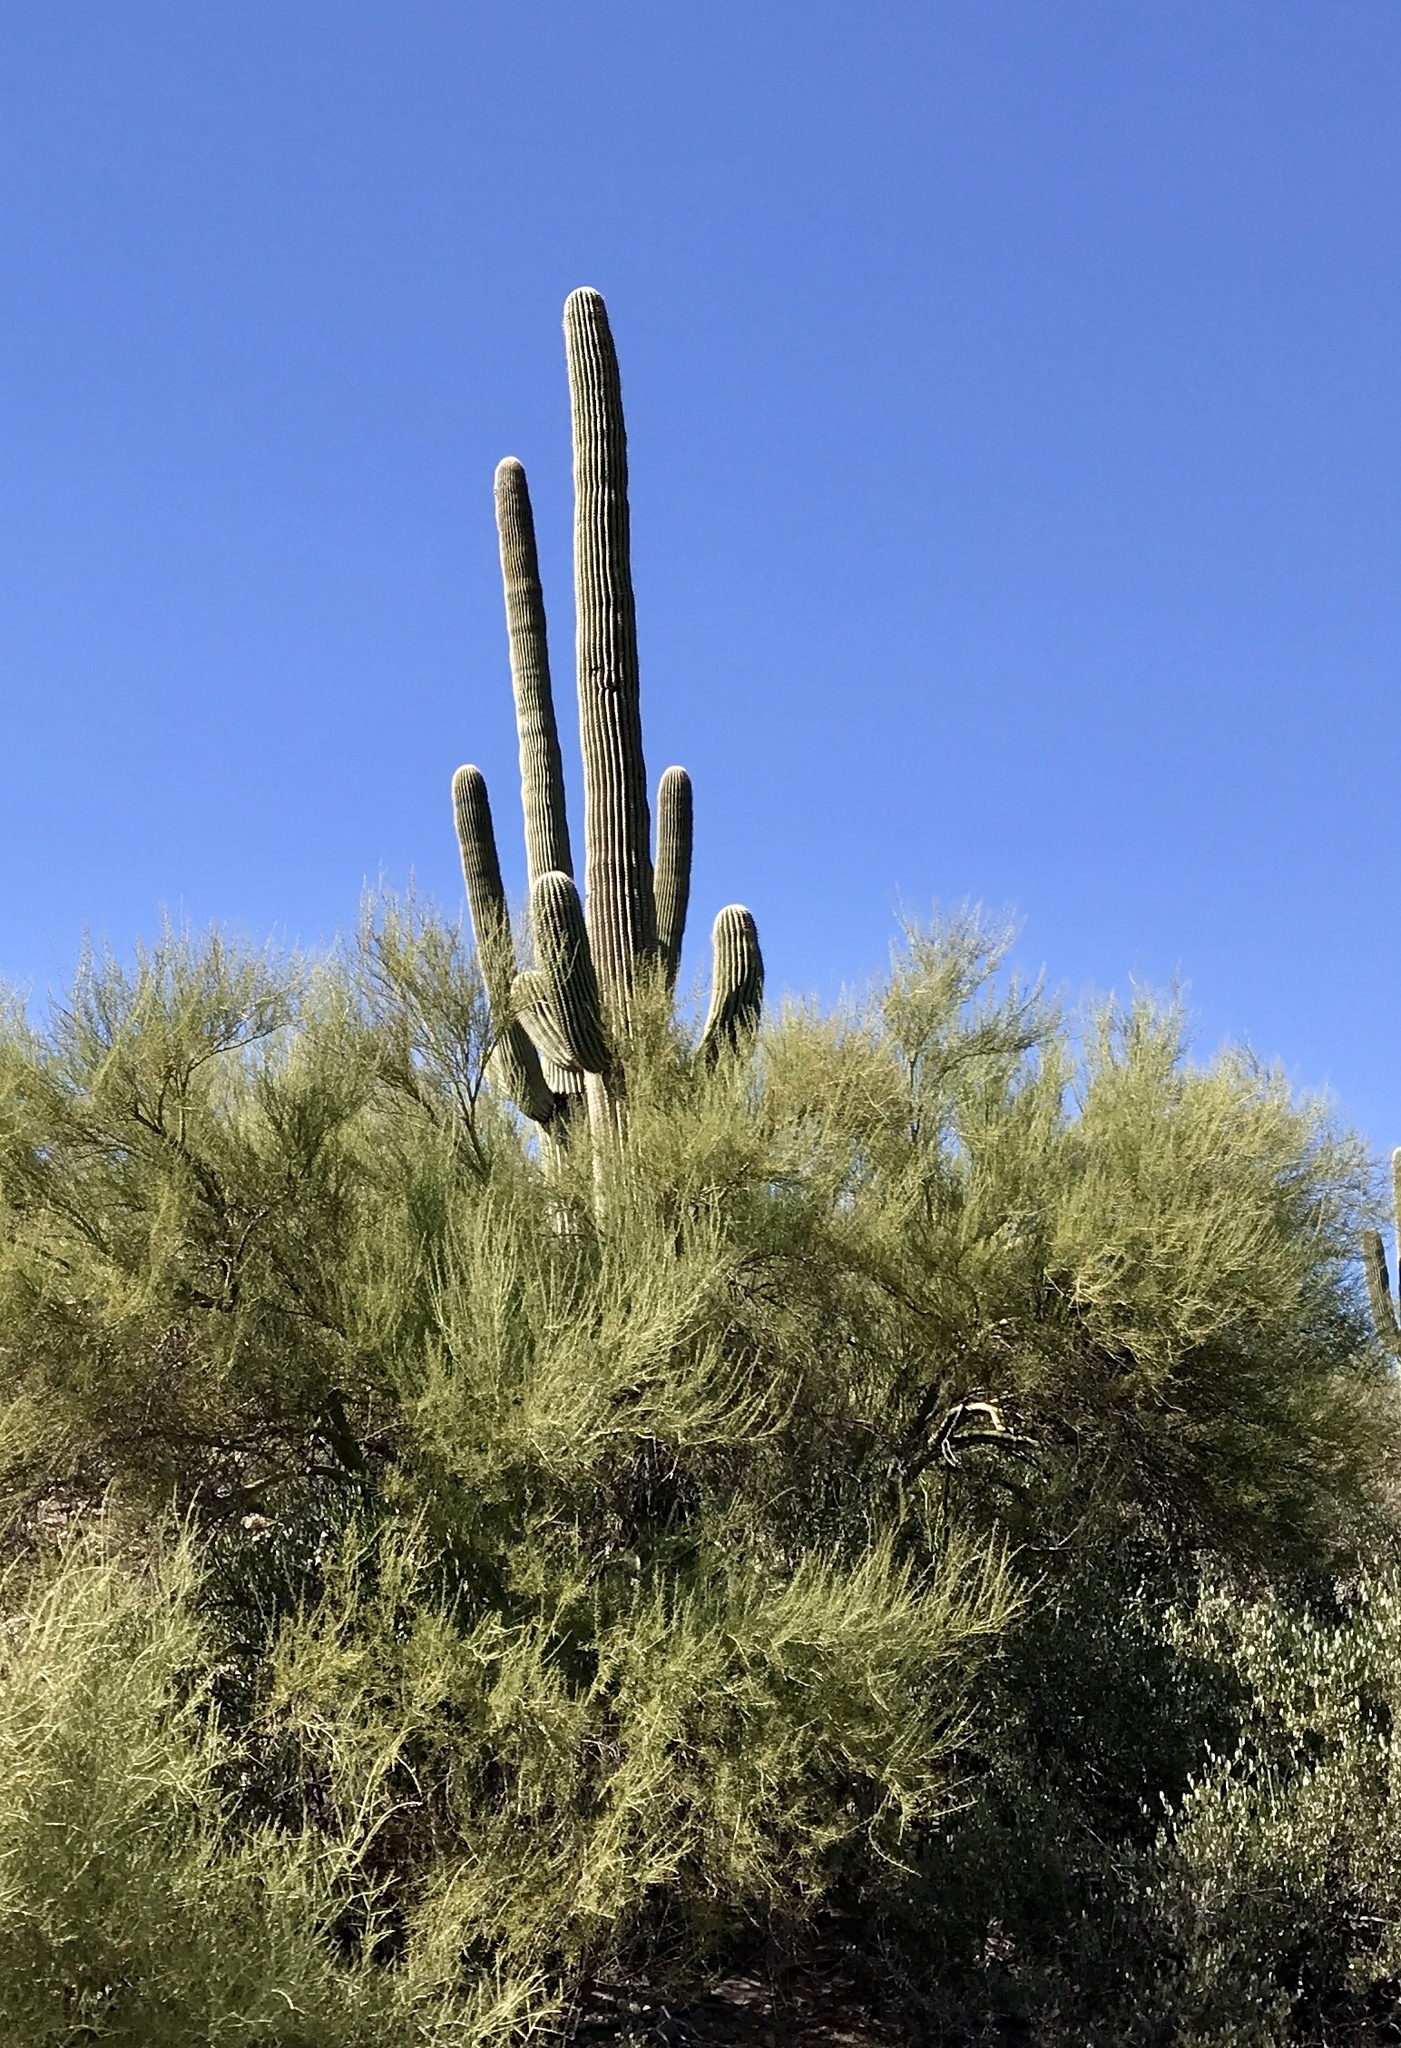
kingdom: Plantae
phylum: Tracheophyta
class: Magnoliopsida
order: Caryophyllales
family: Cactaceae
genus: Carnegiea
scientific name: Carnegiea gigantea
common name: Saguaro
